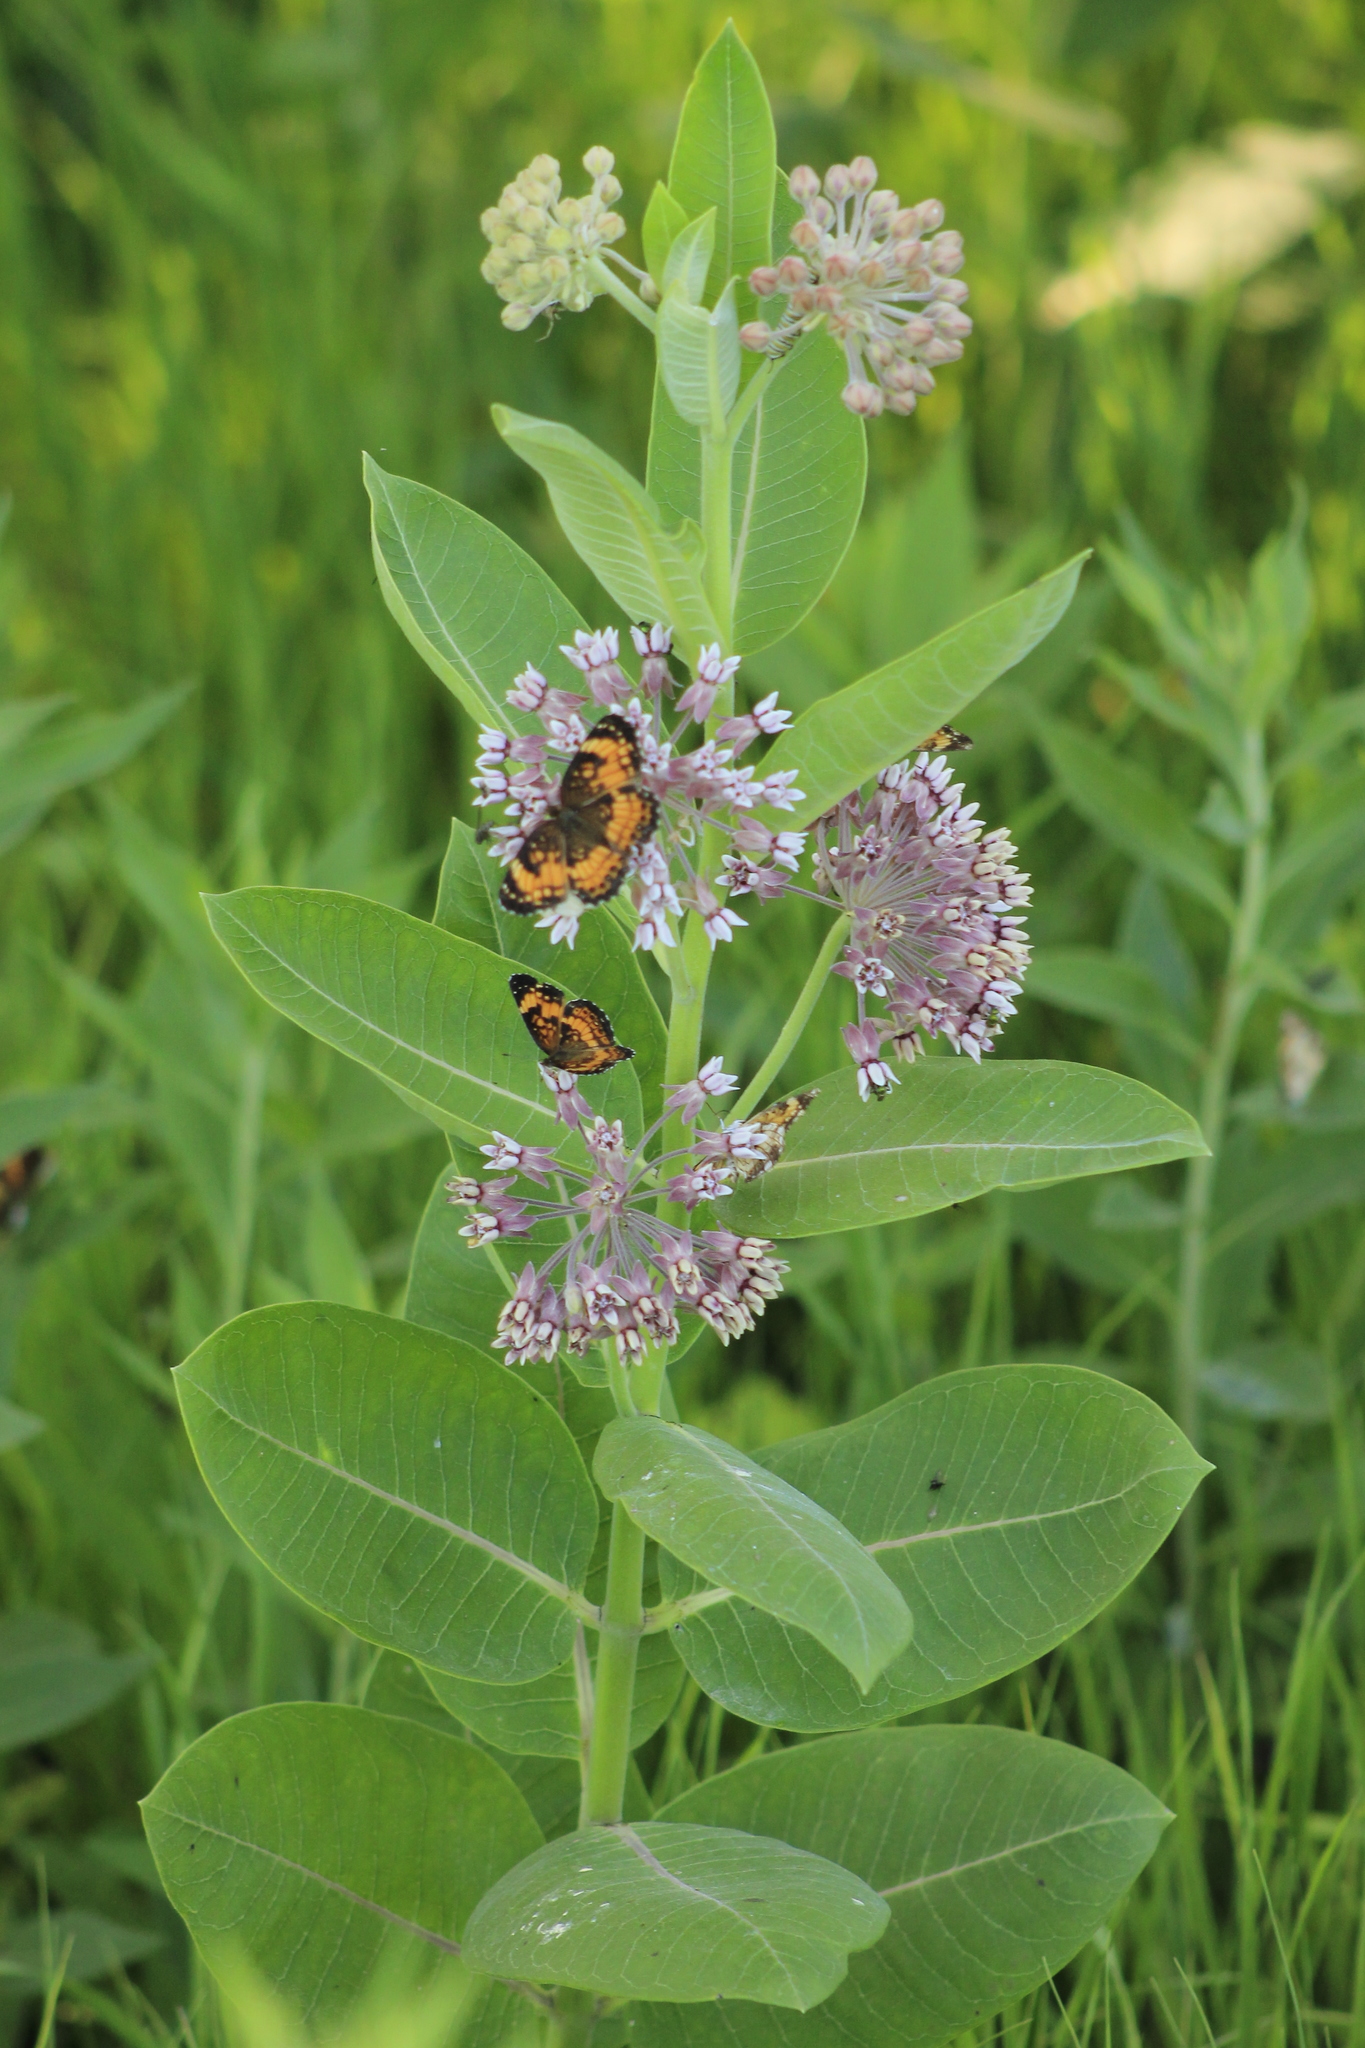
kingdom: Plantae
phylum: Tracheophyta
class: Magnoliopsida
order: Gentianales
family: Apocynaceae
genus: Asclepias
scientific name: Asclepias syriaca
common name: Common milkweed
